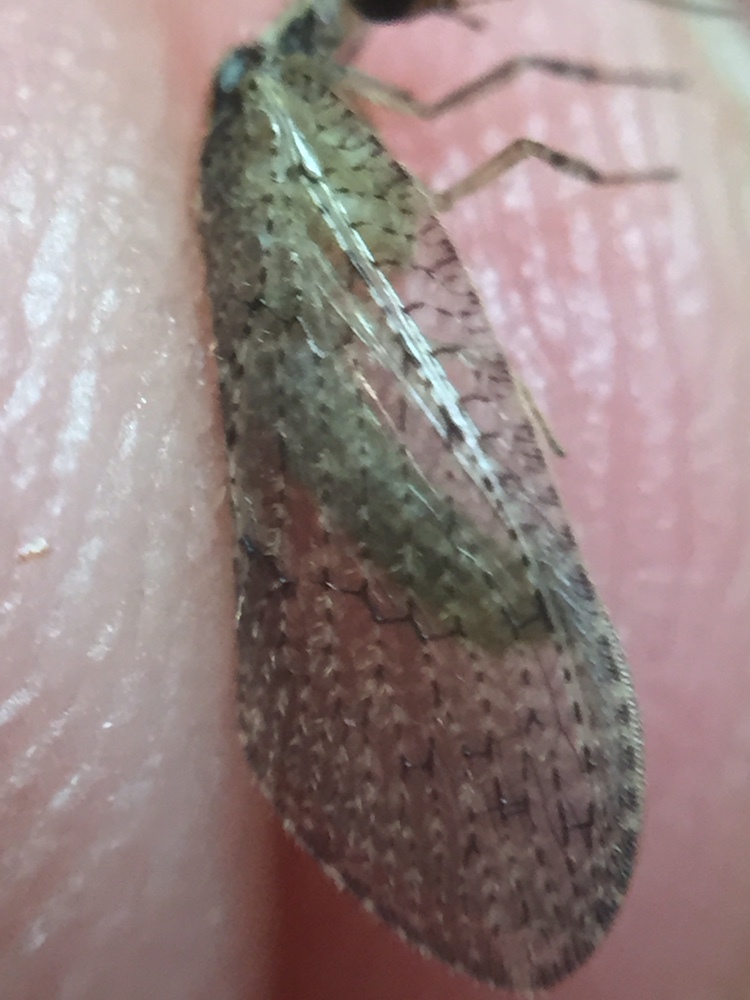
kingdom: Animalia
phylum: Arthropoda
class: Insecta
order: Neuroptera
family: Hemerobiidae
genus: Wesmaelius
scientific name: Wesmaelius subnebulosus
